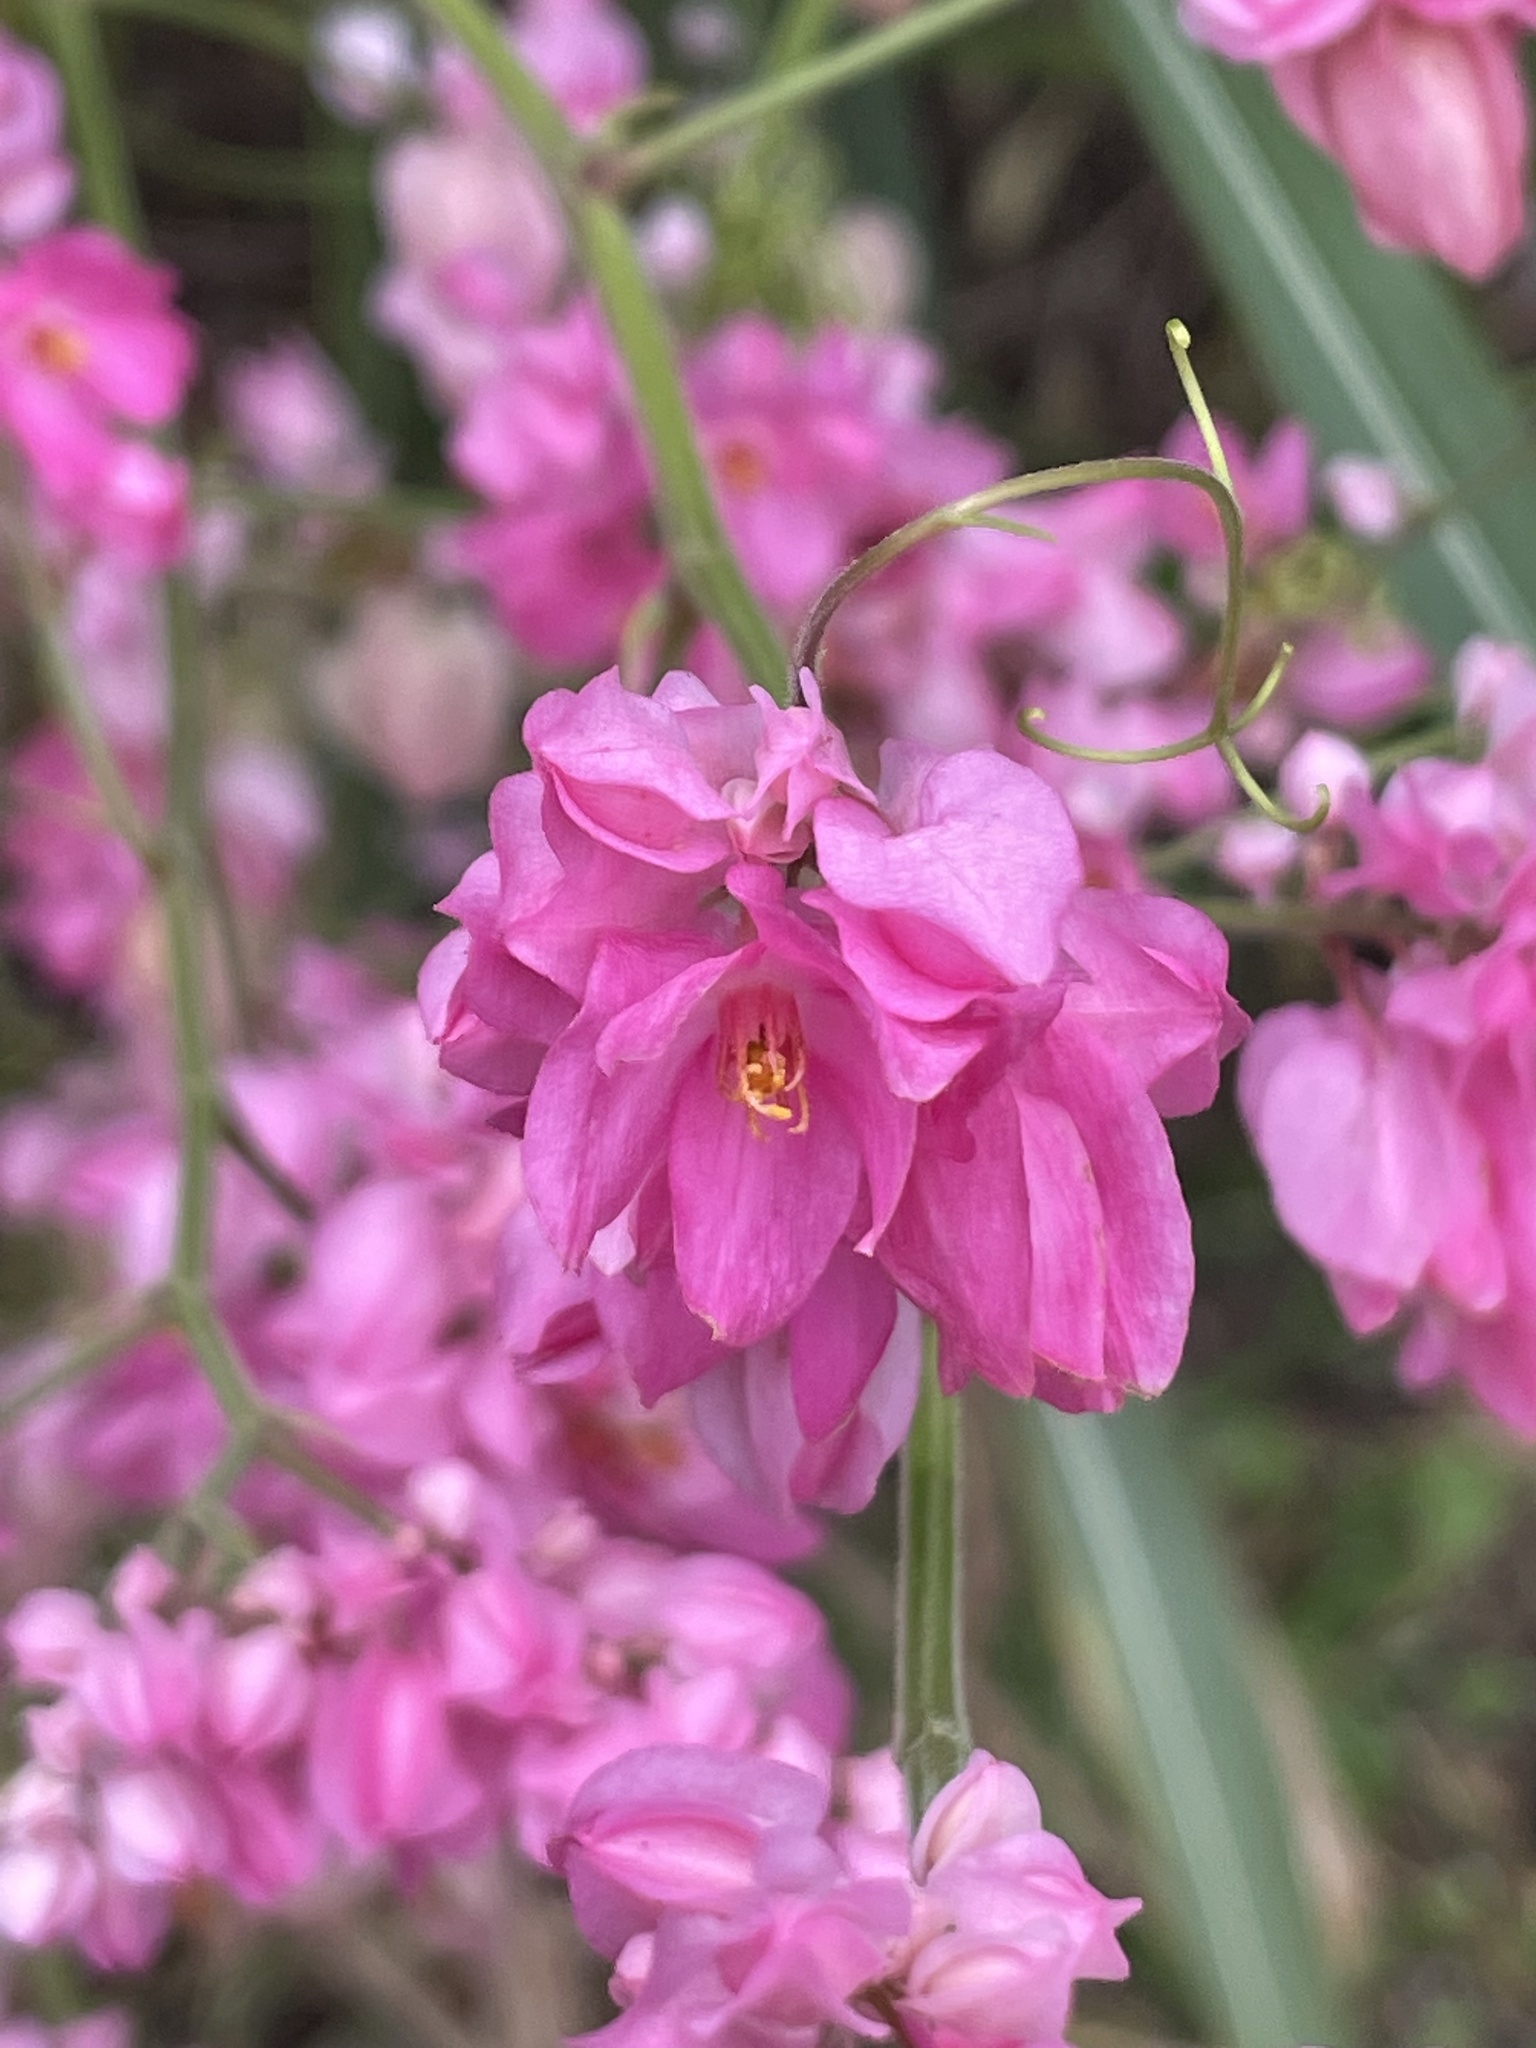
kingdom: Plantae
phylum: Tracheophyta
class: Magnoliopsida
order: Caryophyllales
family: Polygonaceae
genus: Antigonon
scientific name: Antigonon leptopus
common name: Coral vine
